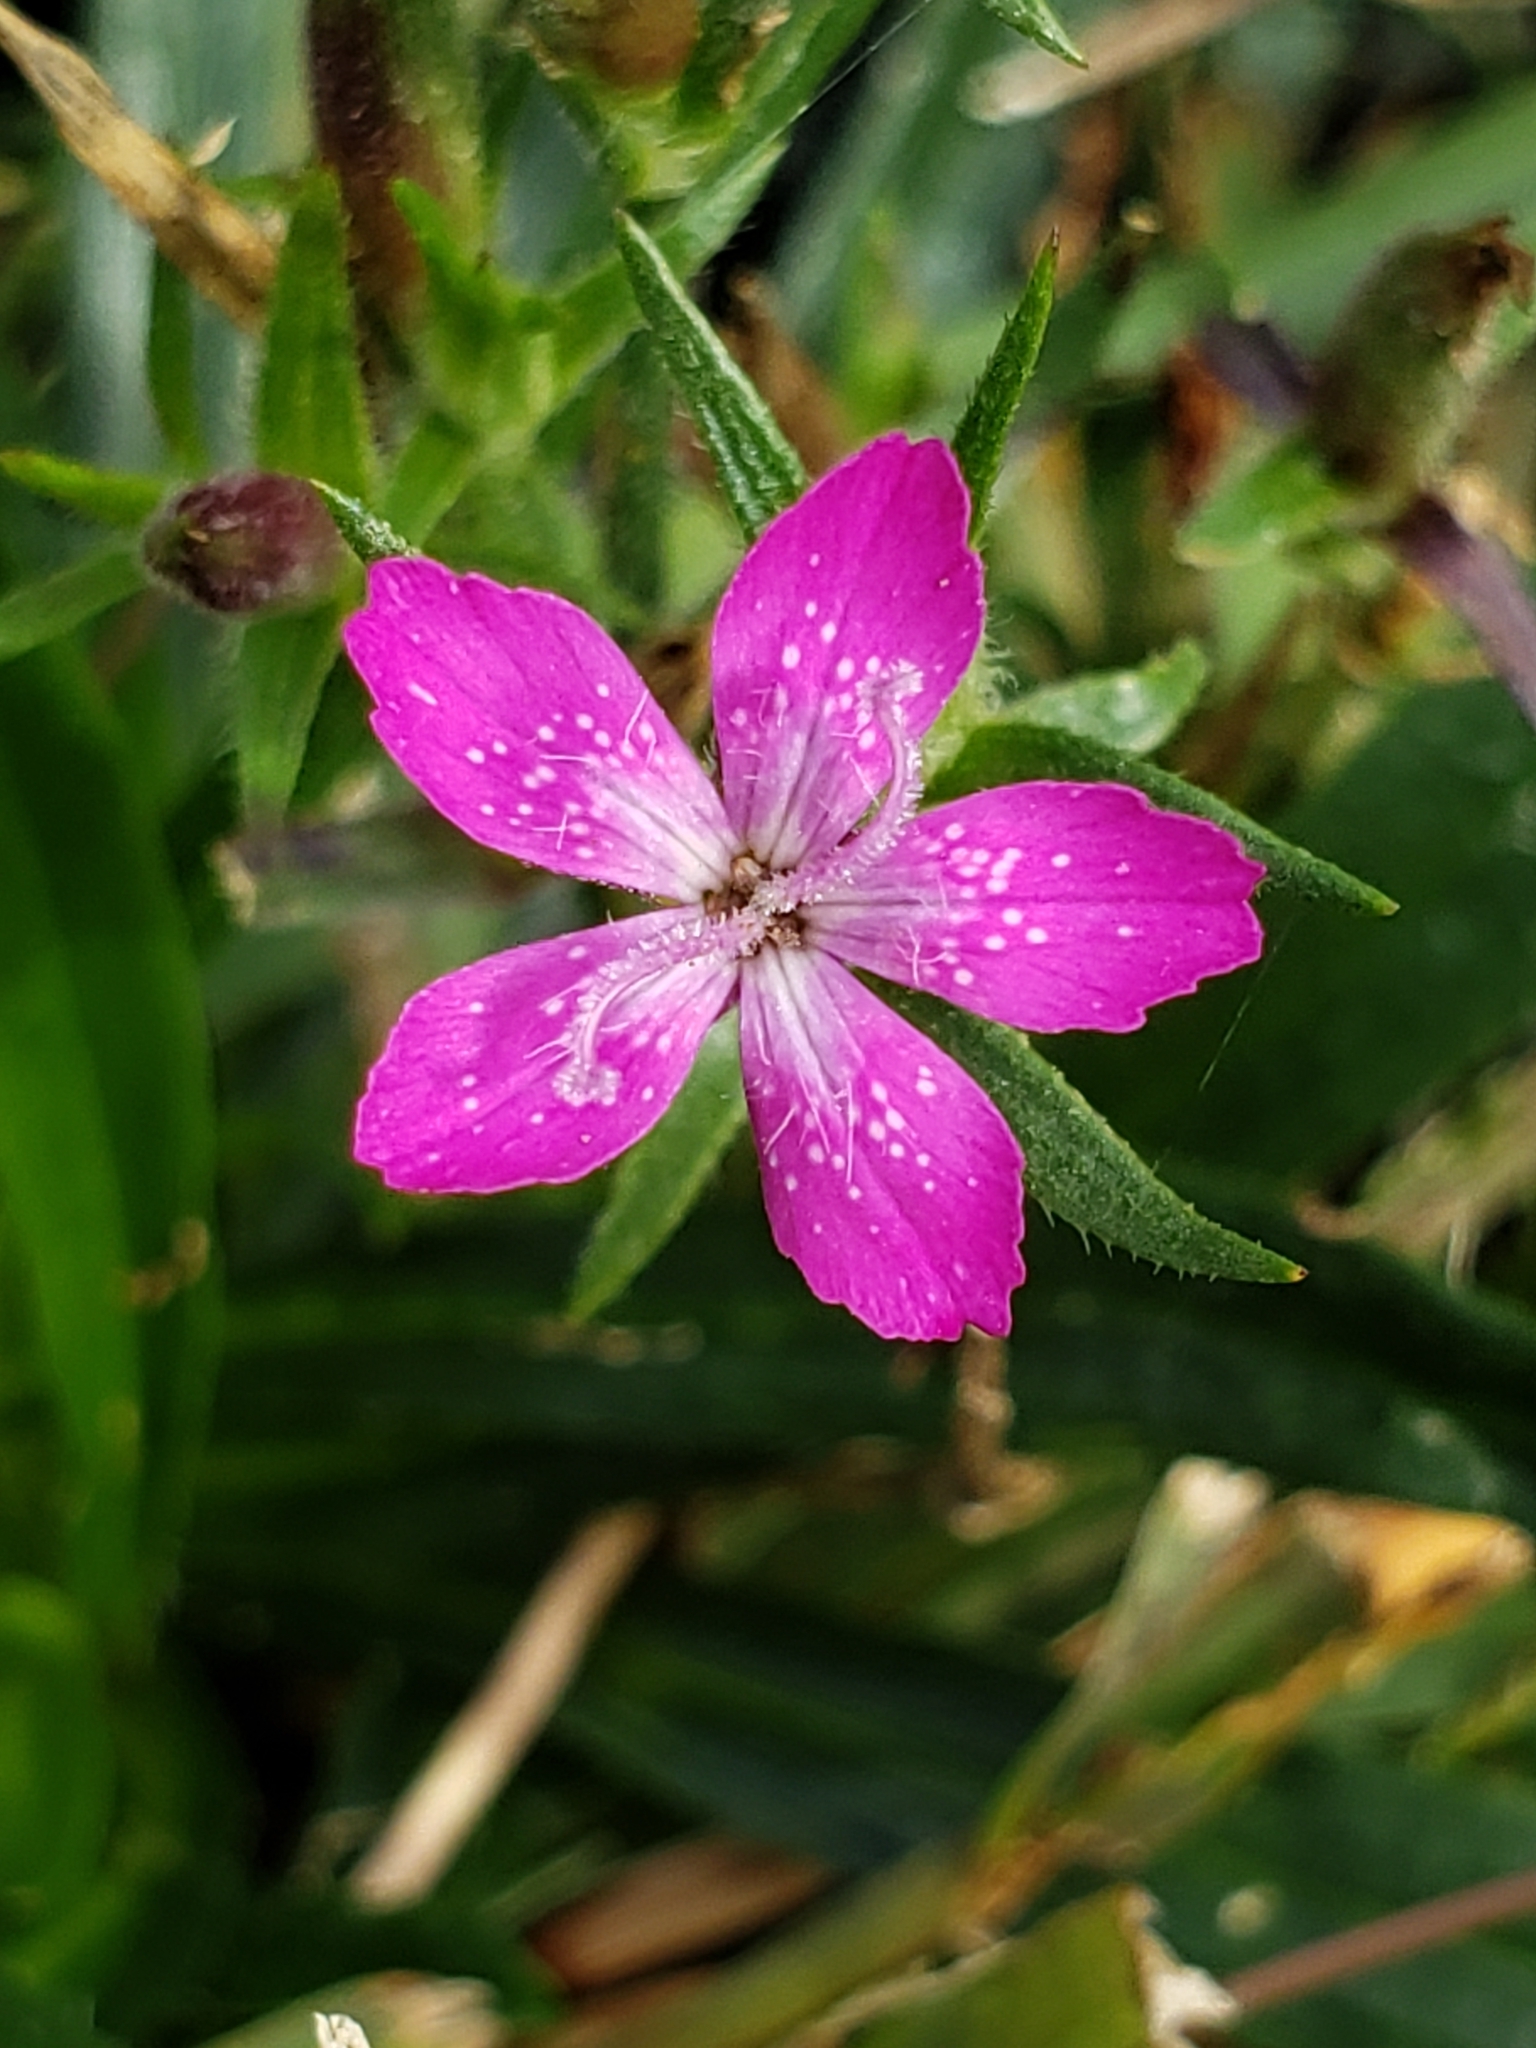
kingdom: Plantae
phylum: Tracheophyta
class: Magnoliopsida
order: Caryophyllales
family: Caryophyllaceae
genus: Dianthus
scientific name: Dianthus armeria
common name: Deptford pink
